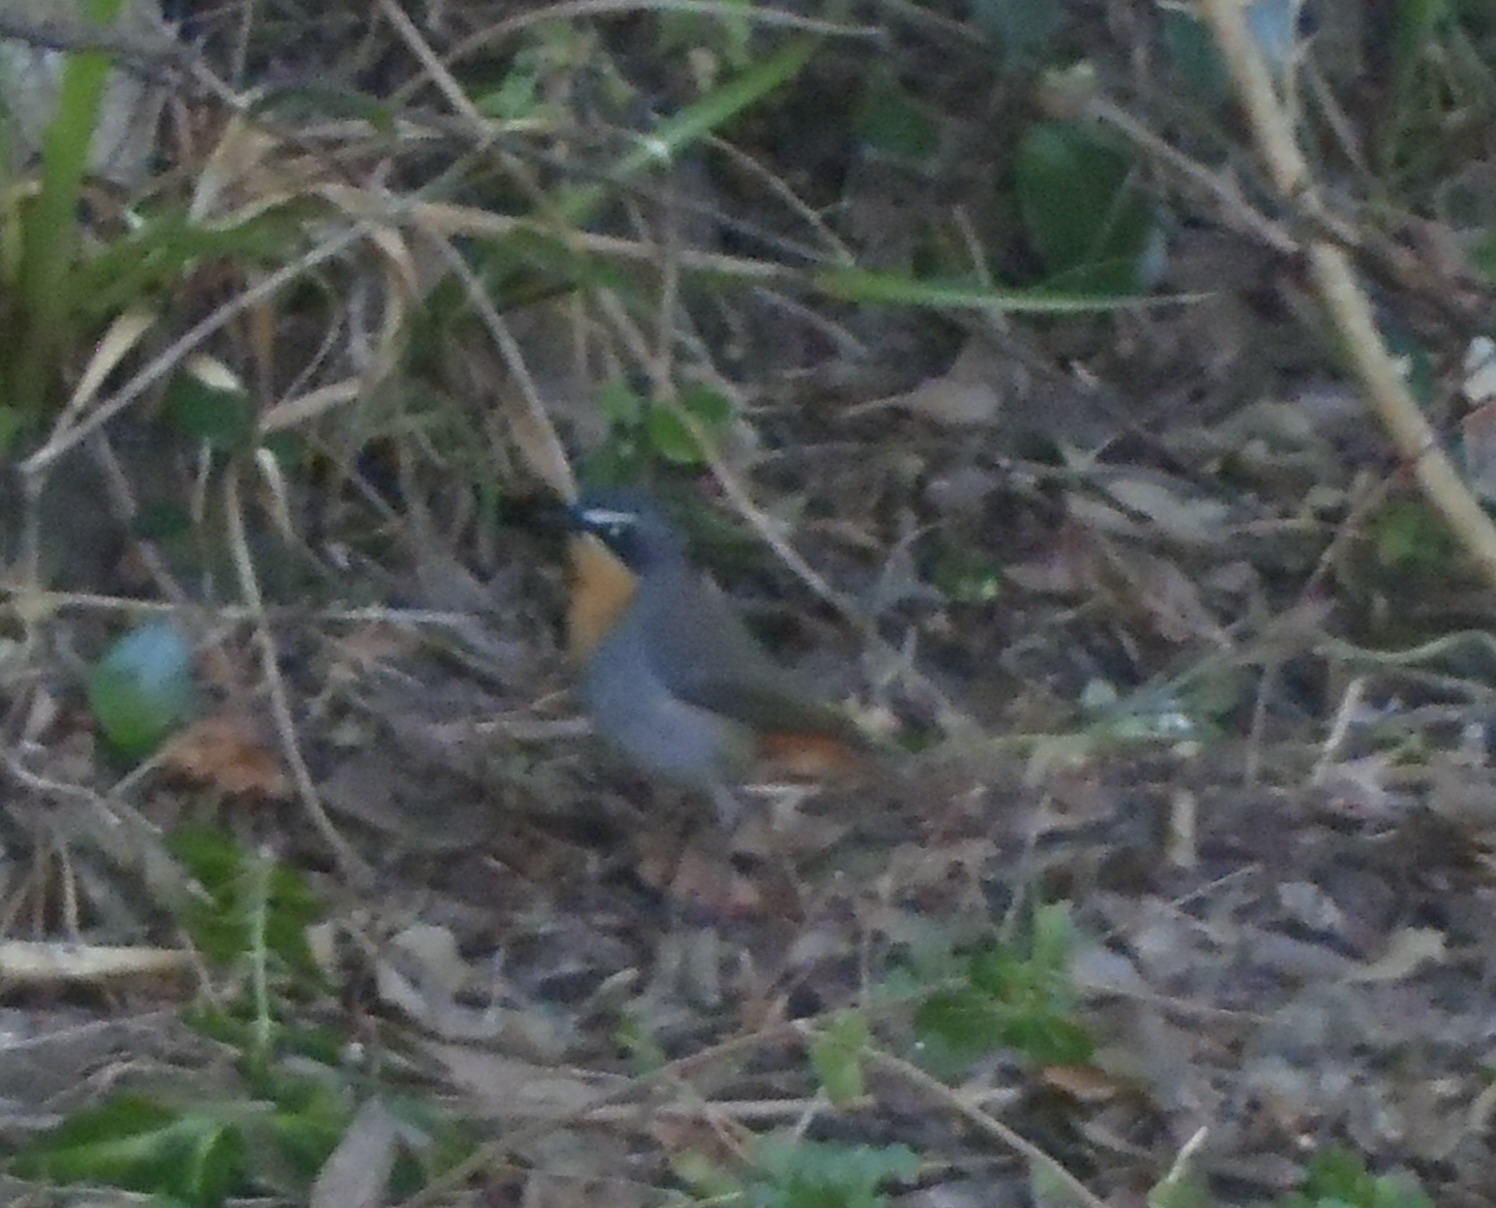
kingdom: Animalia
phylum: Chordata
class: Aves
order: Passeriformes
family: Muscicapidae
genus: Cossypha
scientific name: Cossypha caffra
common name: Cape robin-chat
